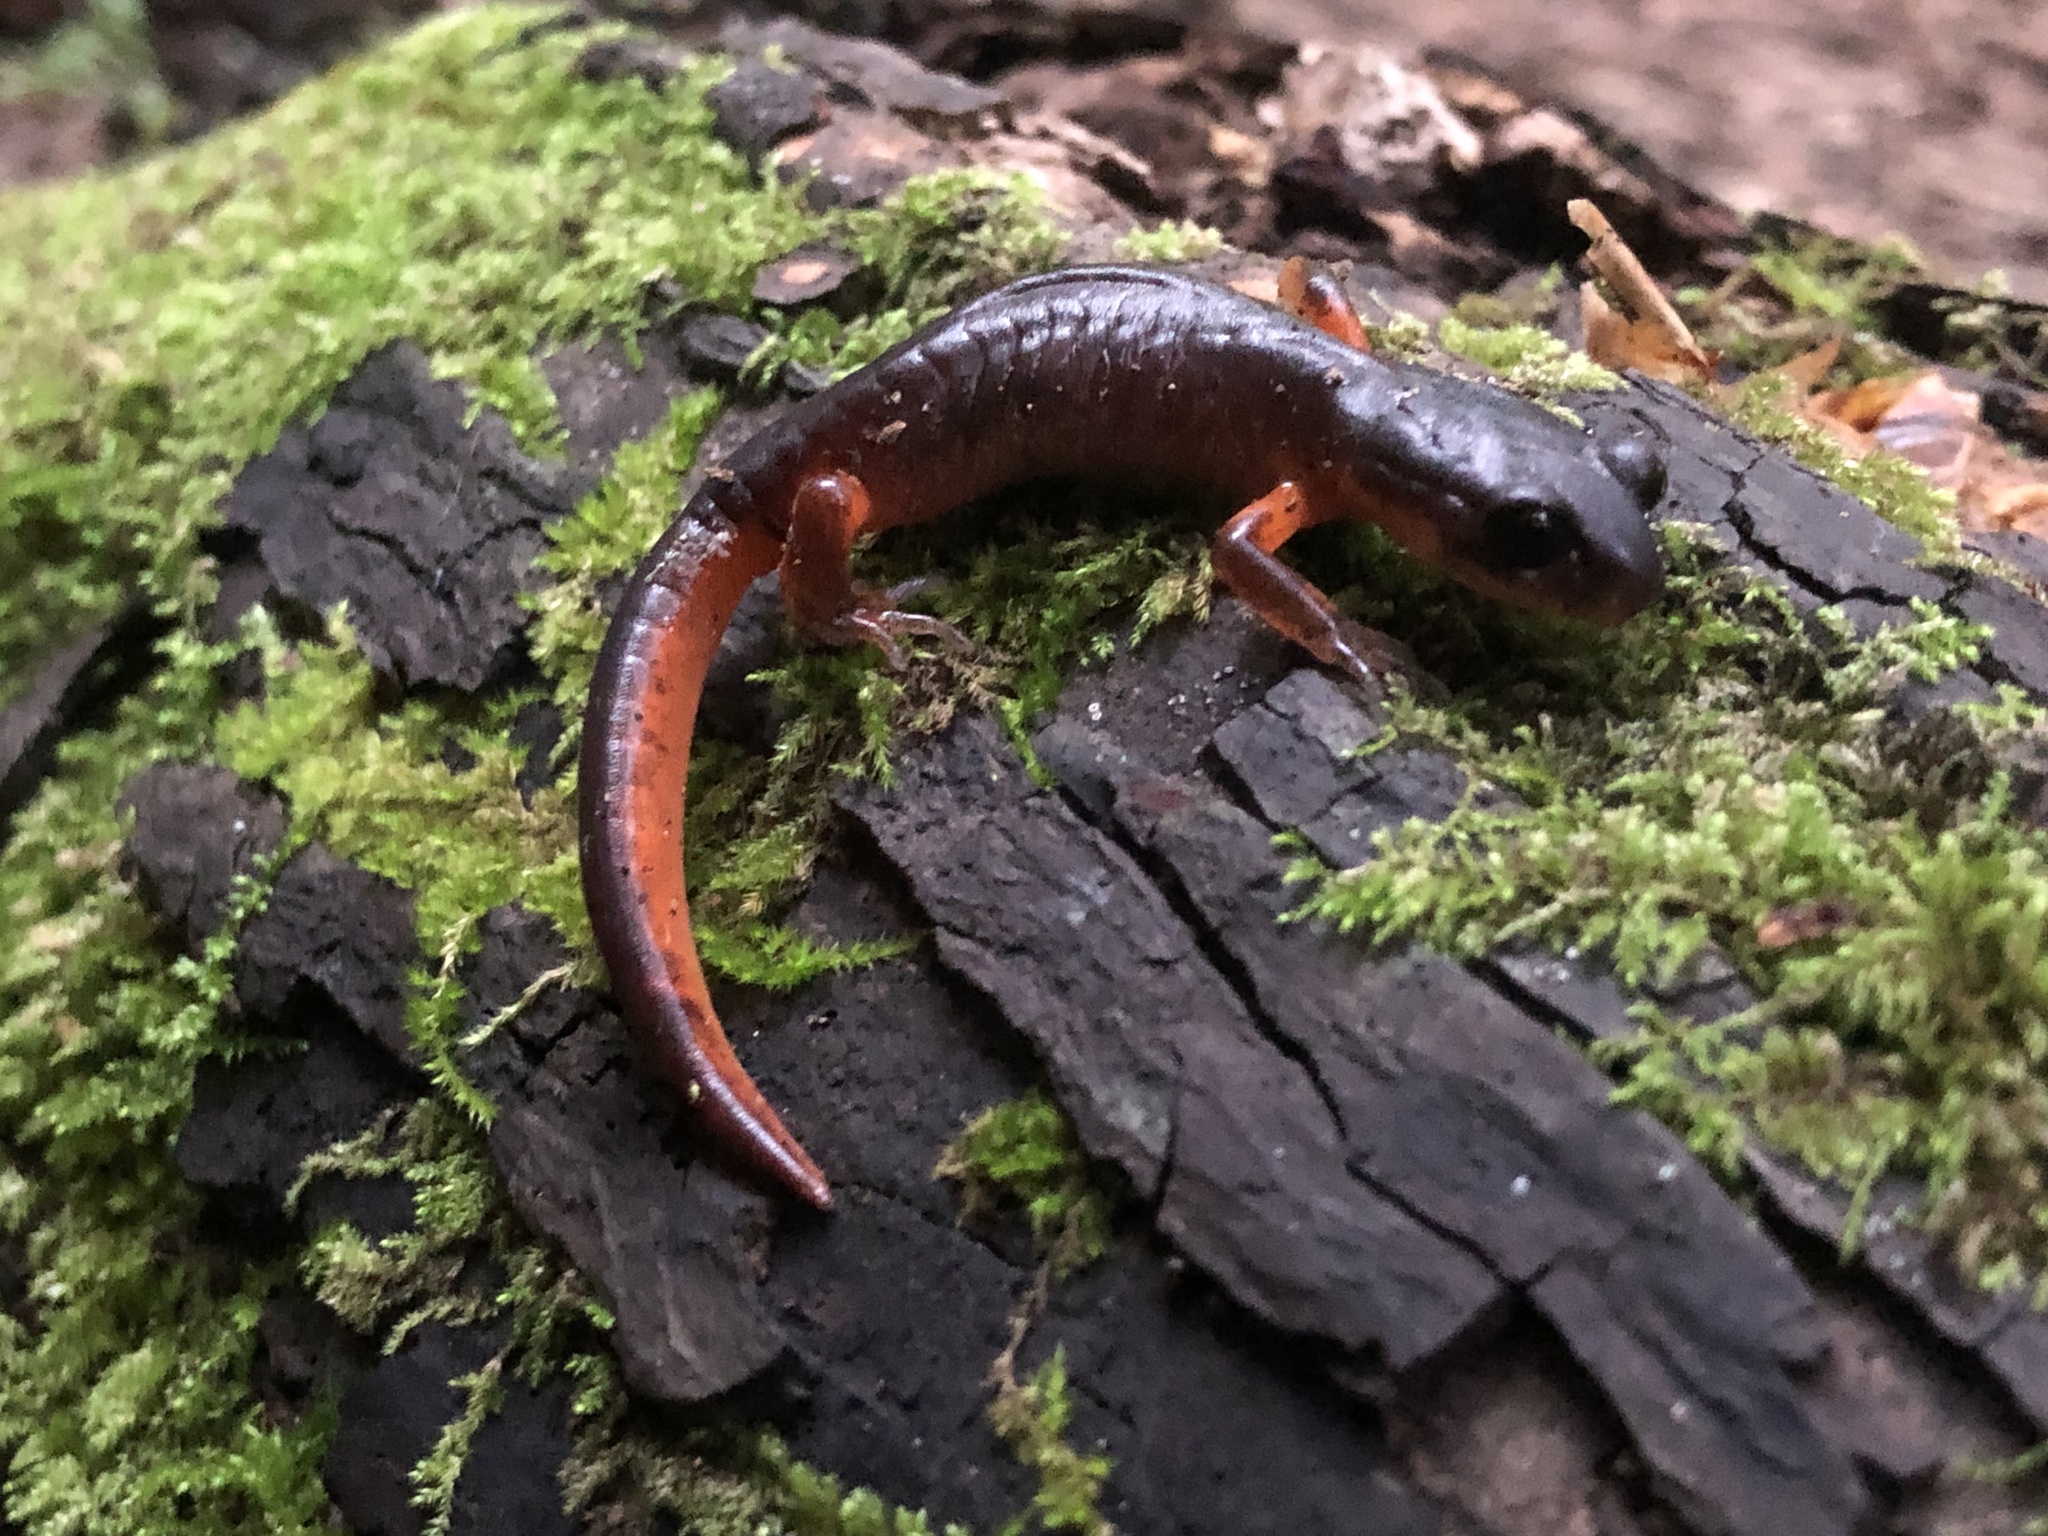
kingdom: Animalia
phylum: Chordata
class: Amphibia
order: Caudata
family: Plethodontidae
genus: Ensatina
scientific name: Ensatina eschscholtzii
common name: Ensatina
